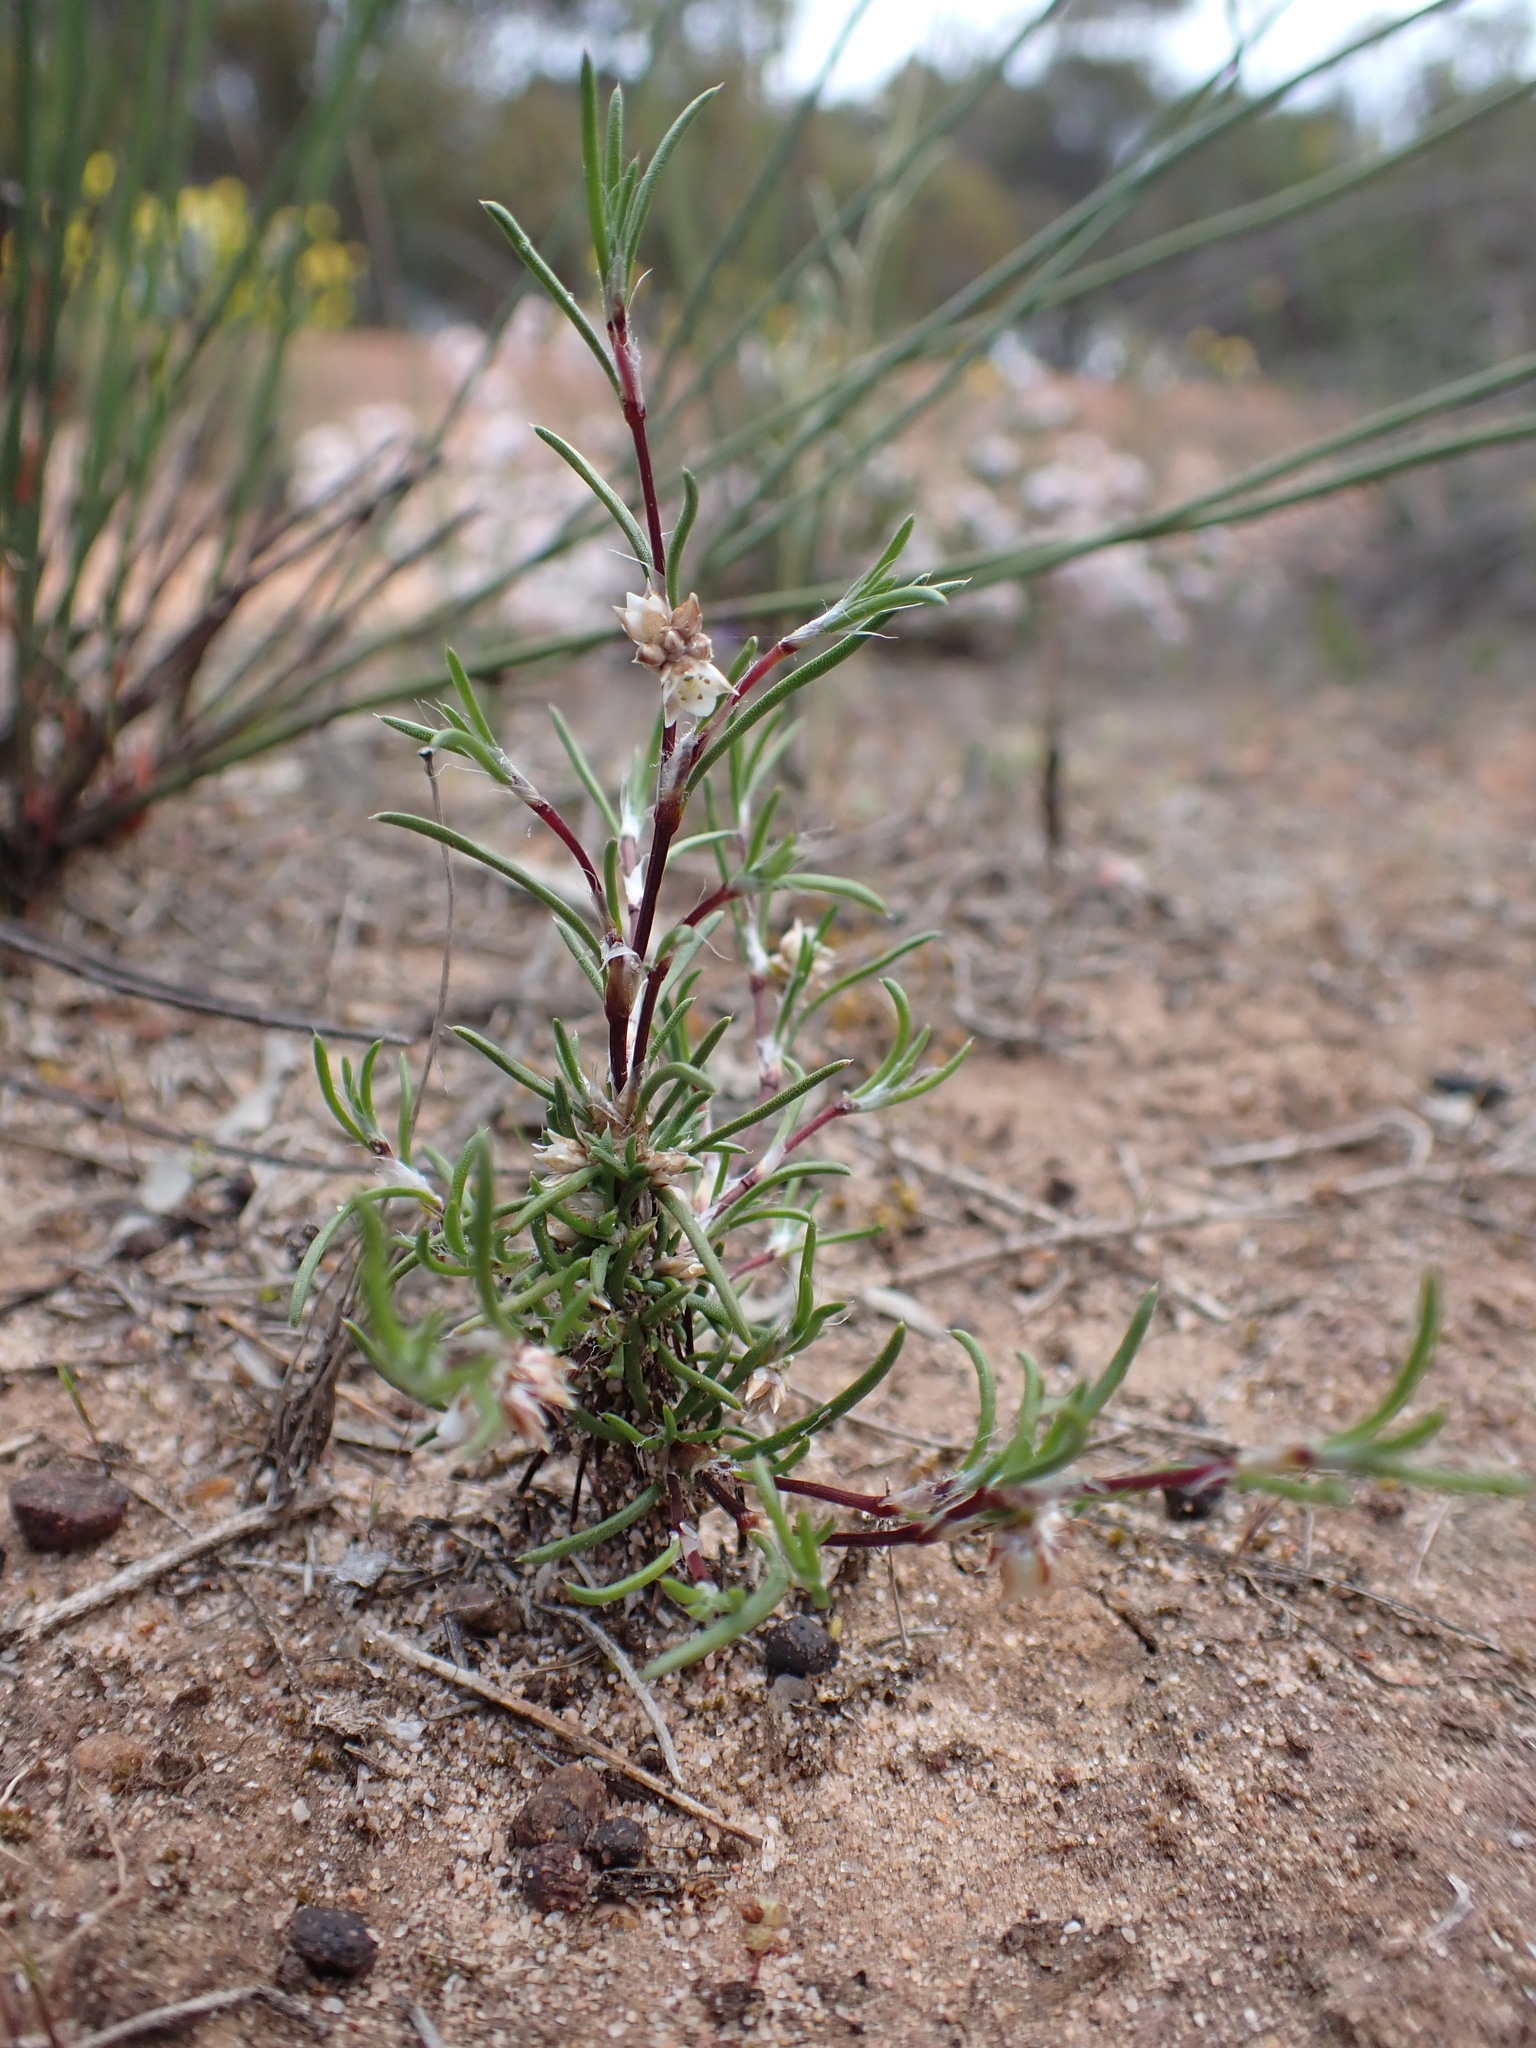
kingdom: Plantae
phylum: Tracheophyta
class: Liliopsida
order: Asparagales
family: Asparagaceae
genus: Laxmannia
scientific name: Laxmannia orientalis
